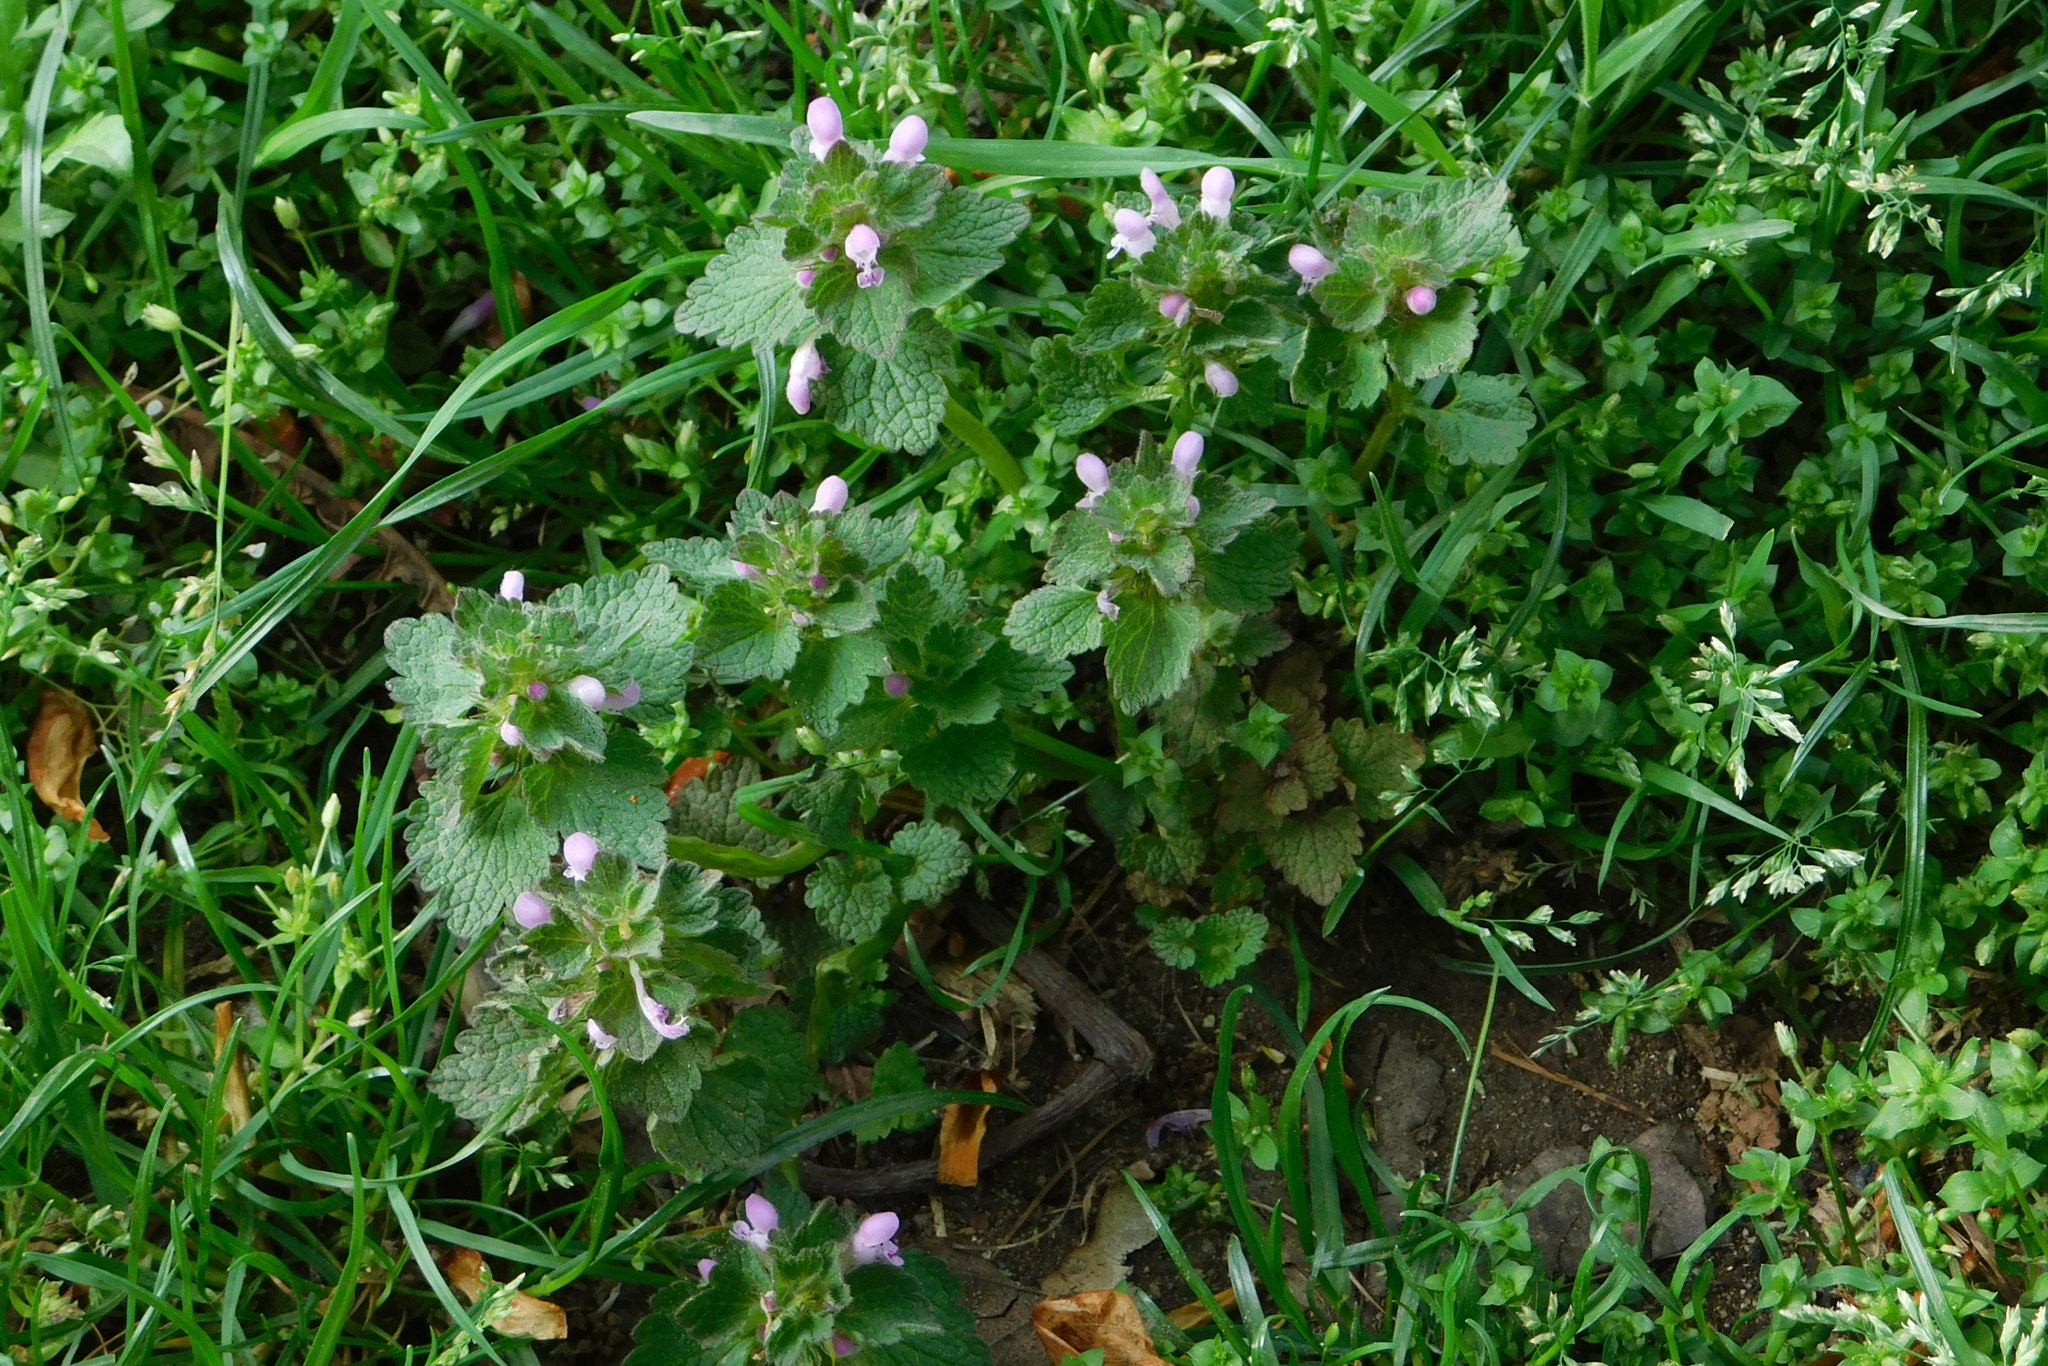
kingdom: Plantae
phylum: Tracheophyta
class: Magnoliopsida
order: Lamiales
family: Lamiaceae
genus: Lamium
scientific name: Lamium purpureum
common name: Red dead-nettle
